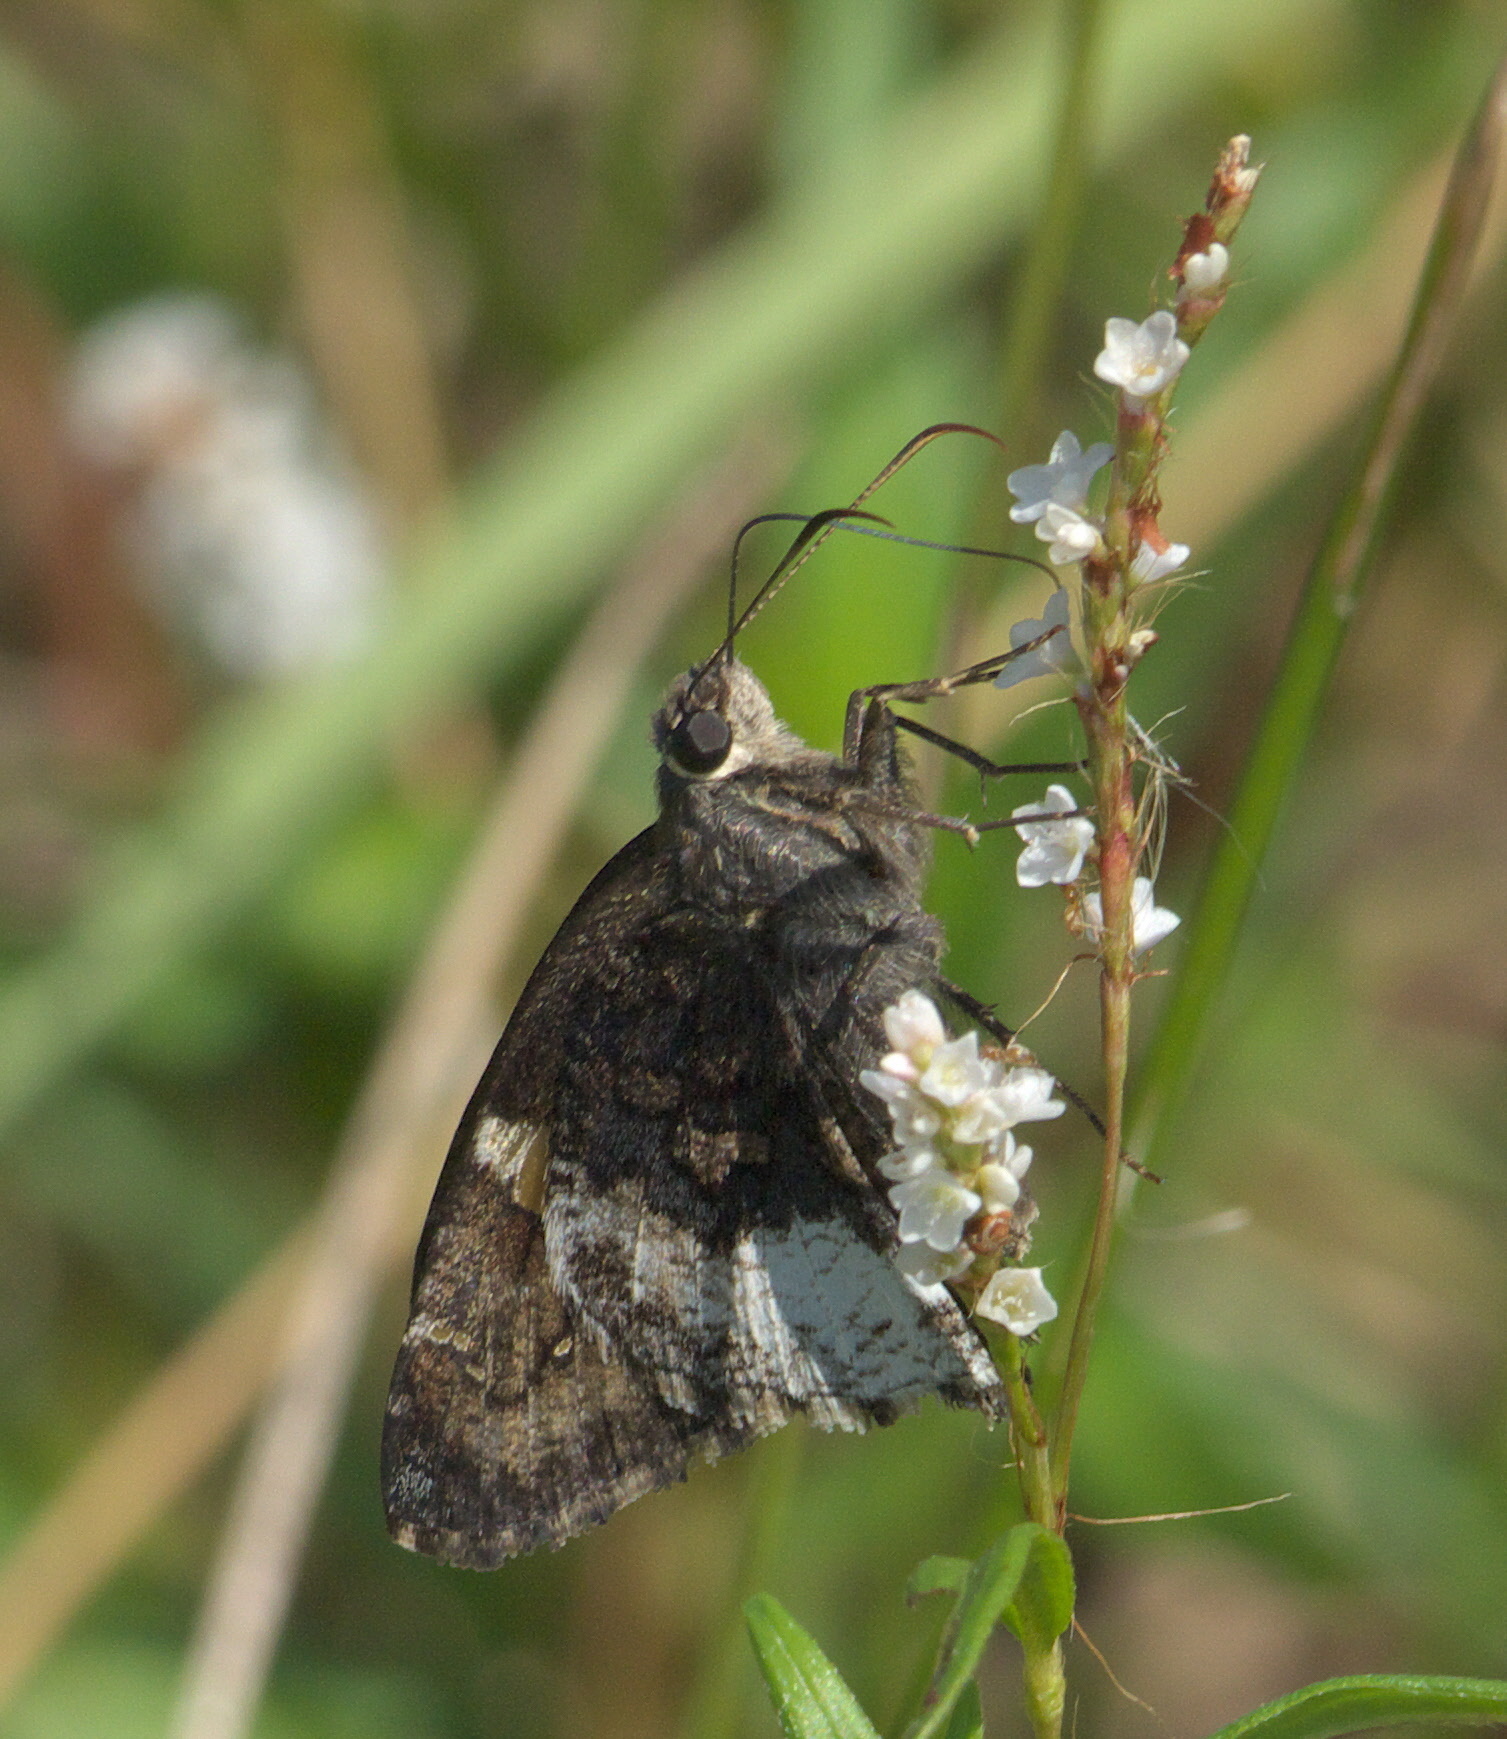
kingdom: Animalia
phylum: Arthropoda
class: Insecta
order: Lepidoptera
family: Hesperiidae
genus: Thorybes
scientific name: Thorybes lyciades
